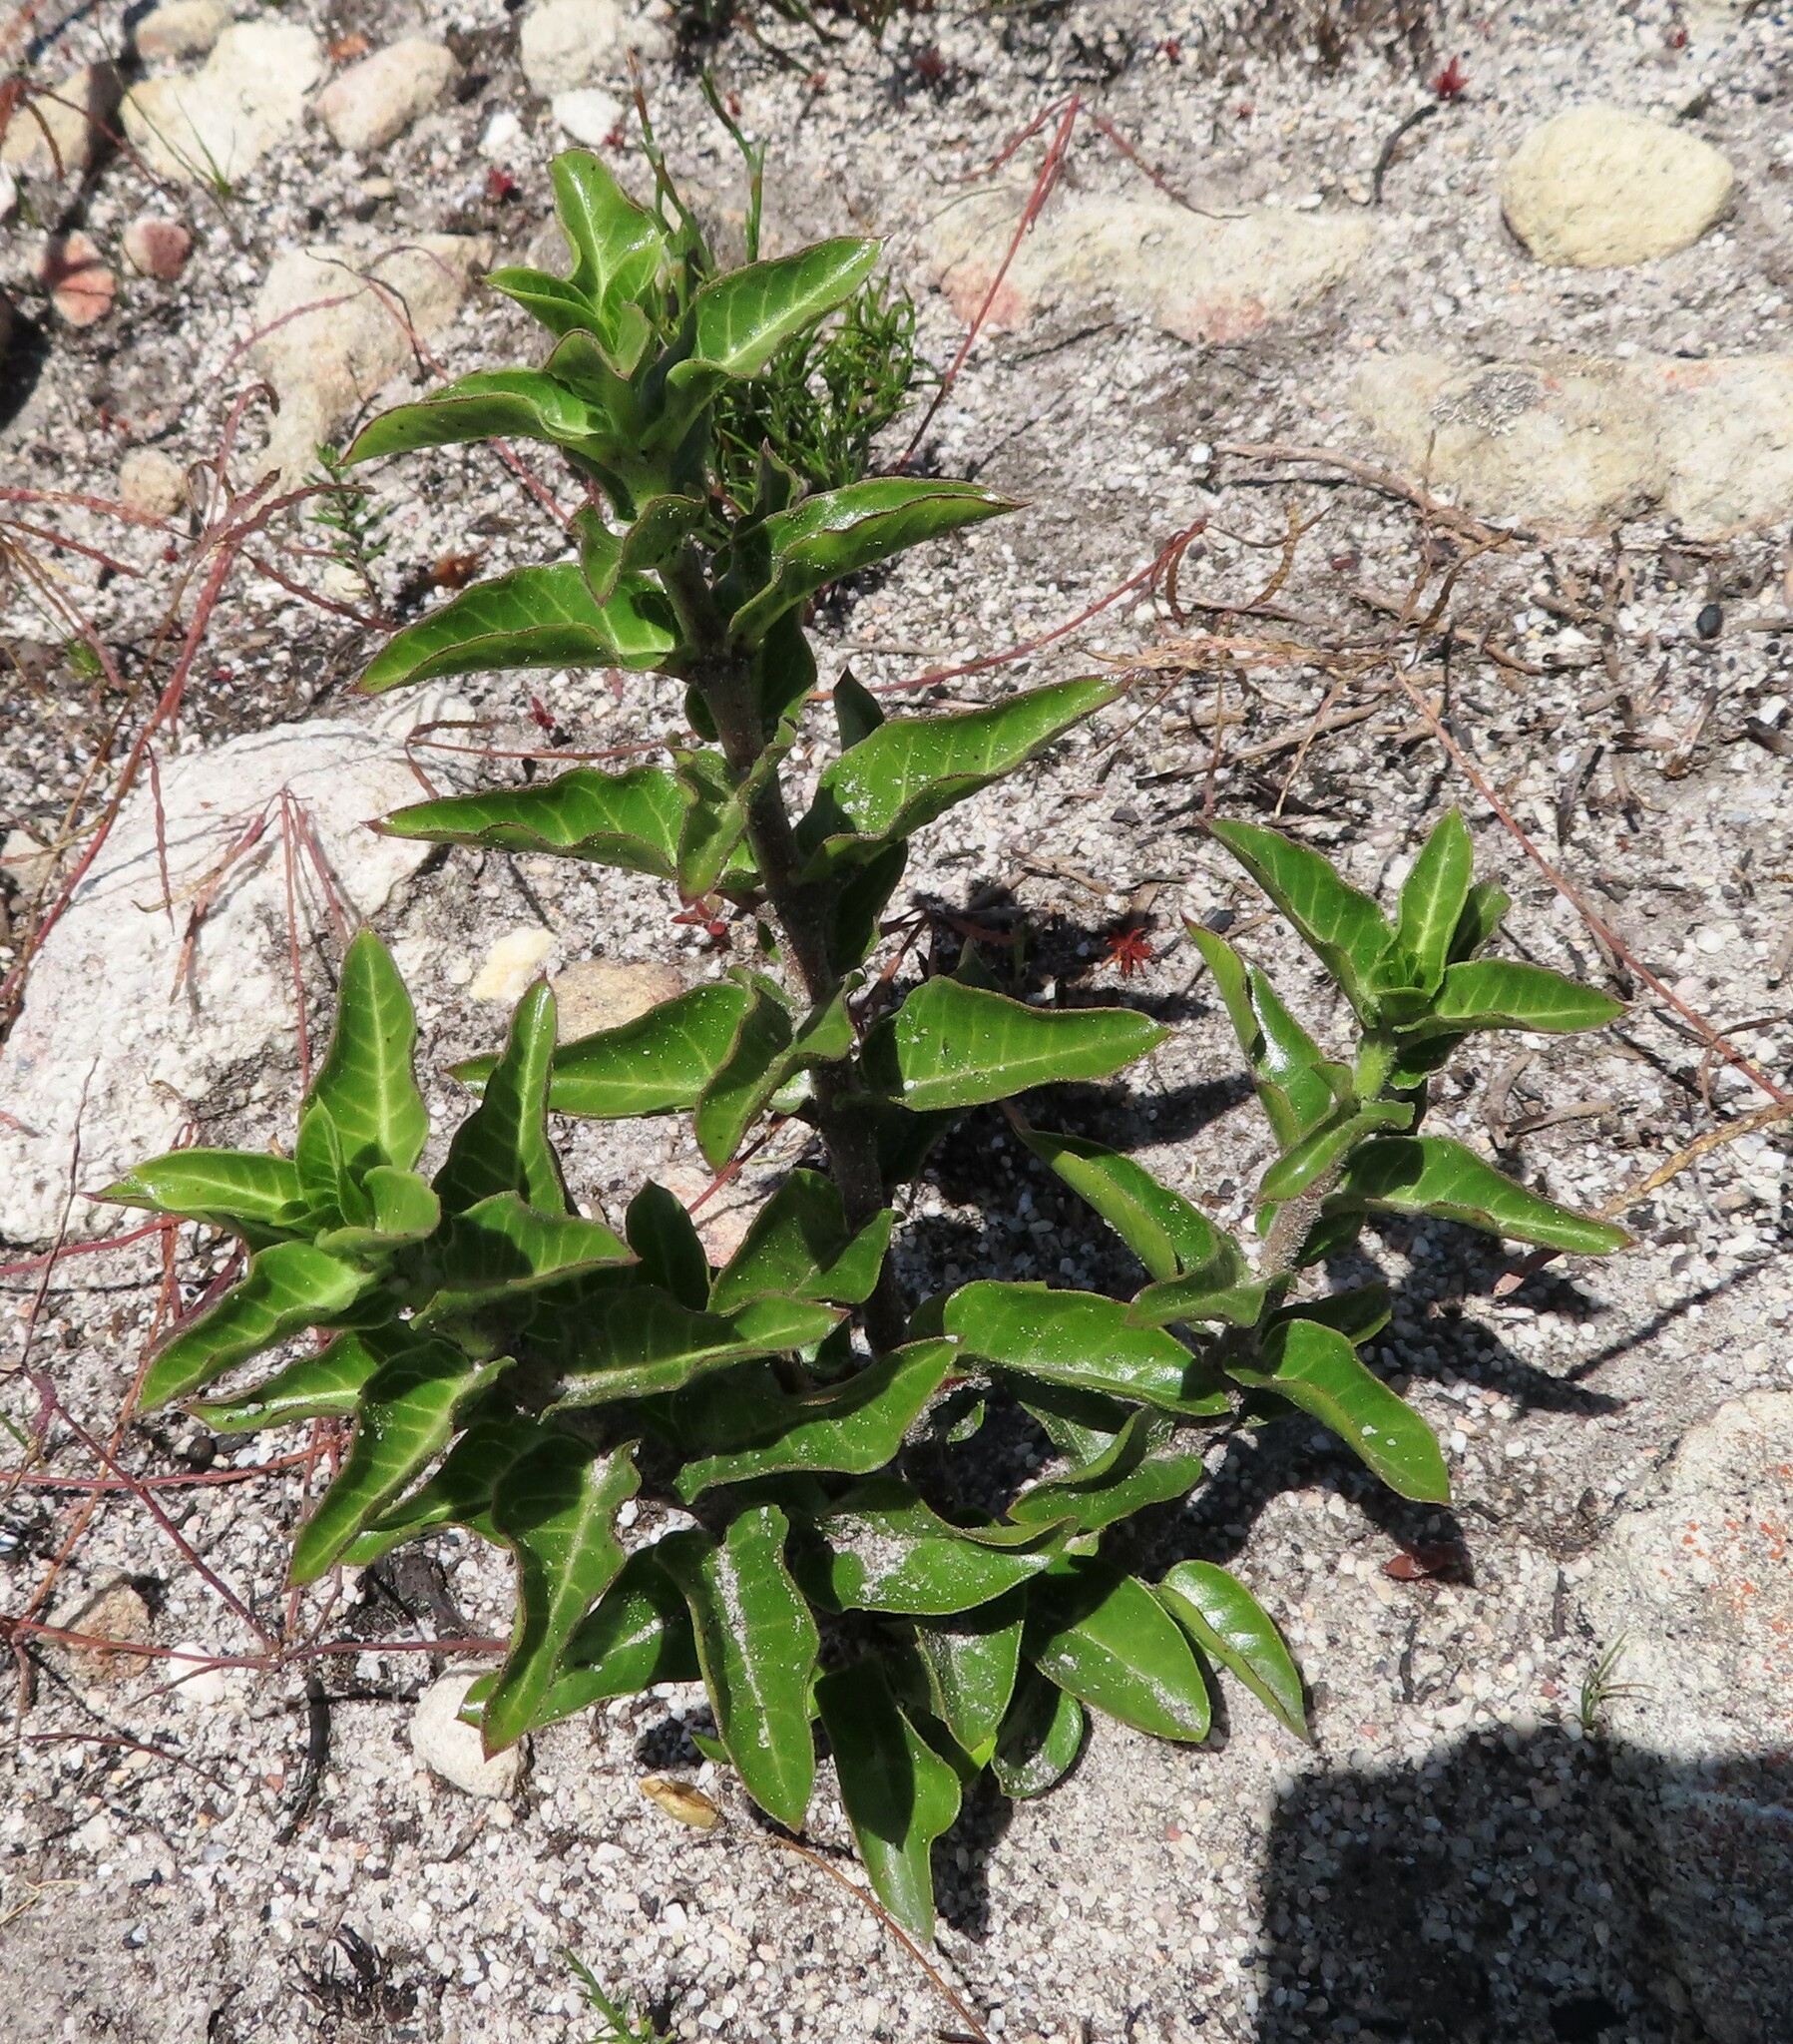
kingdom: Plantae
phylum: Tracheophyta
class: Magnoliopsida
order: Gentianales
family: Apocynaceae
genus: Gomphocarpus
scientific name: Gomphocarpus cancellatus
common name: Wild cotton
